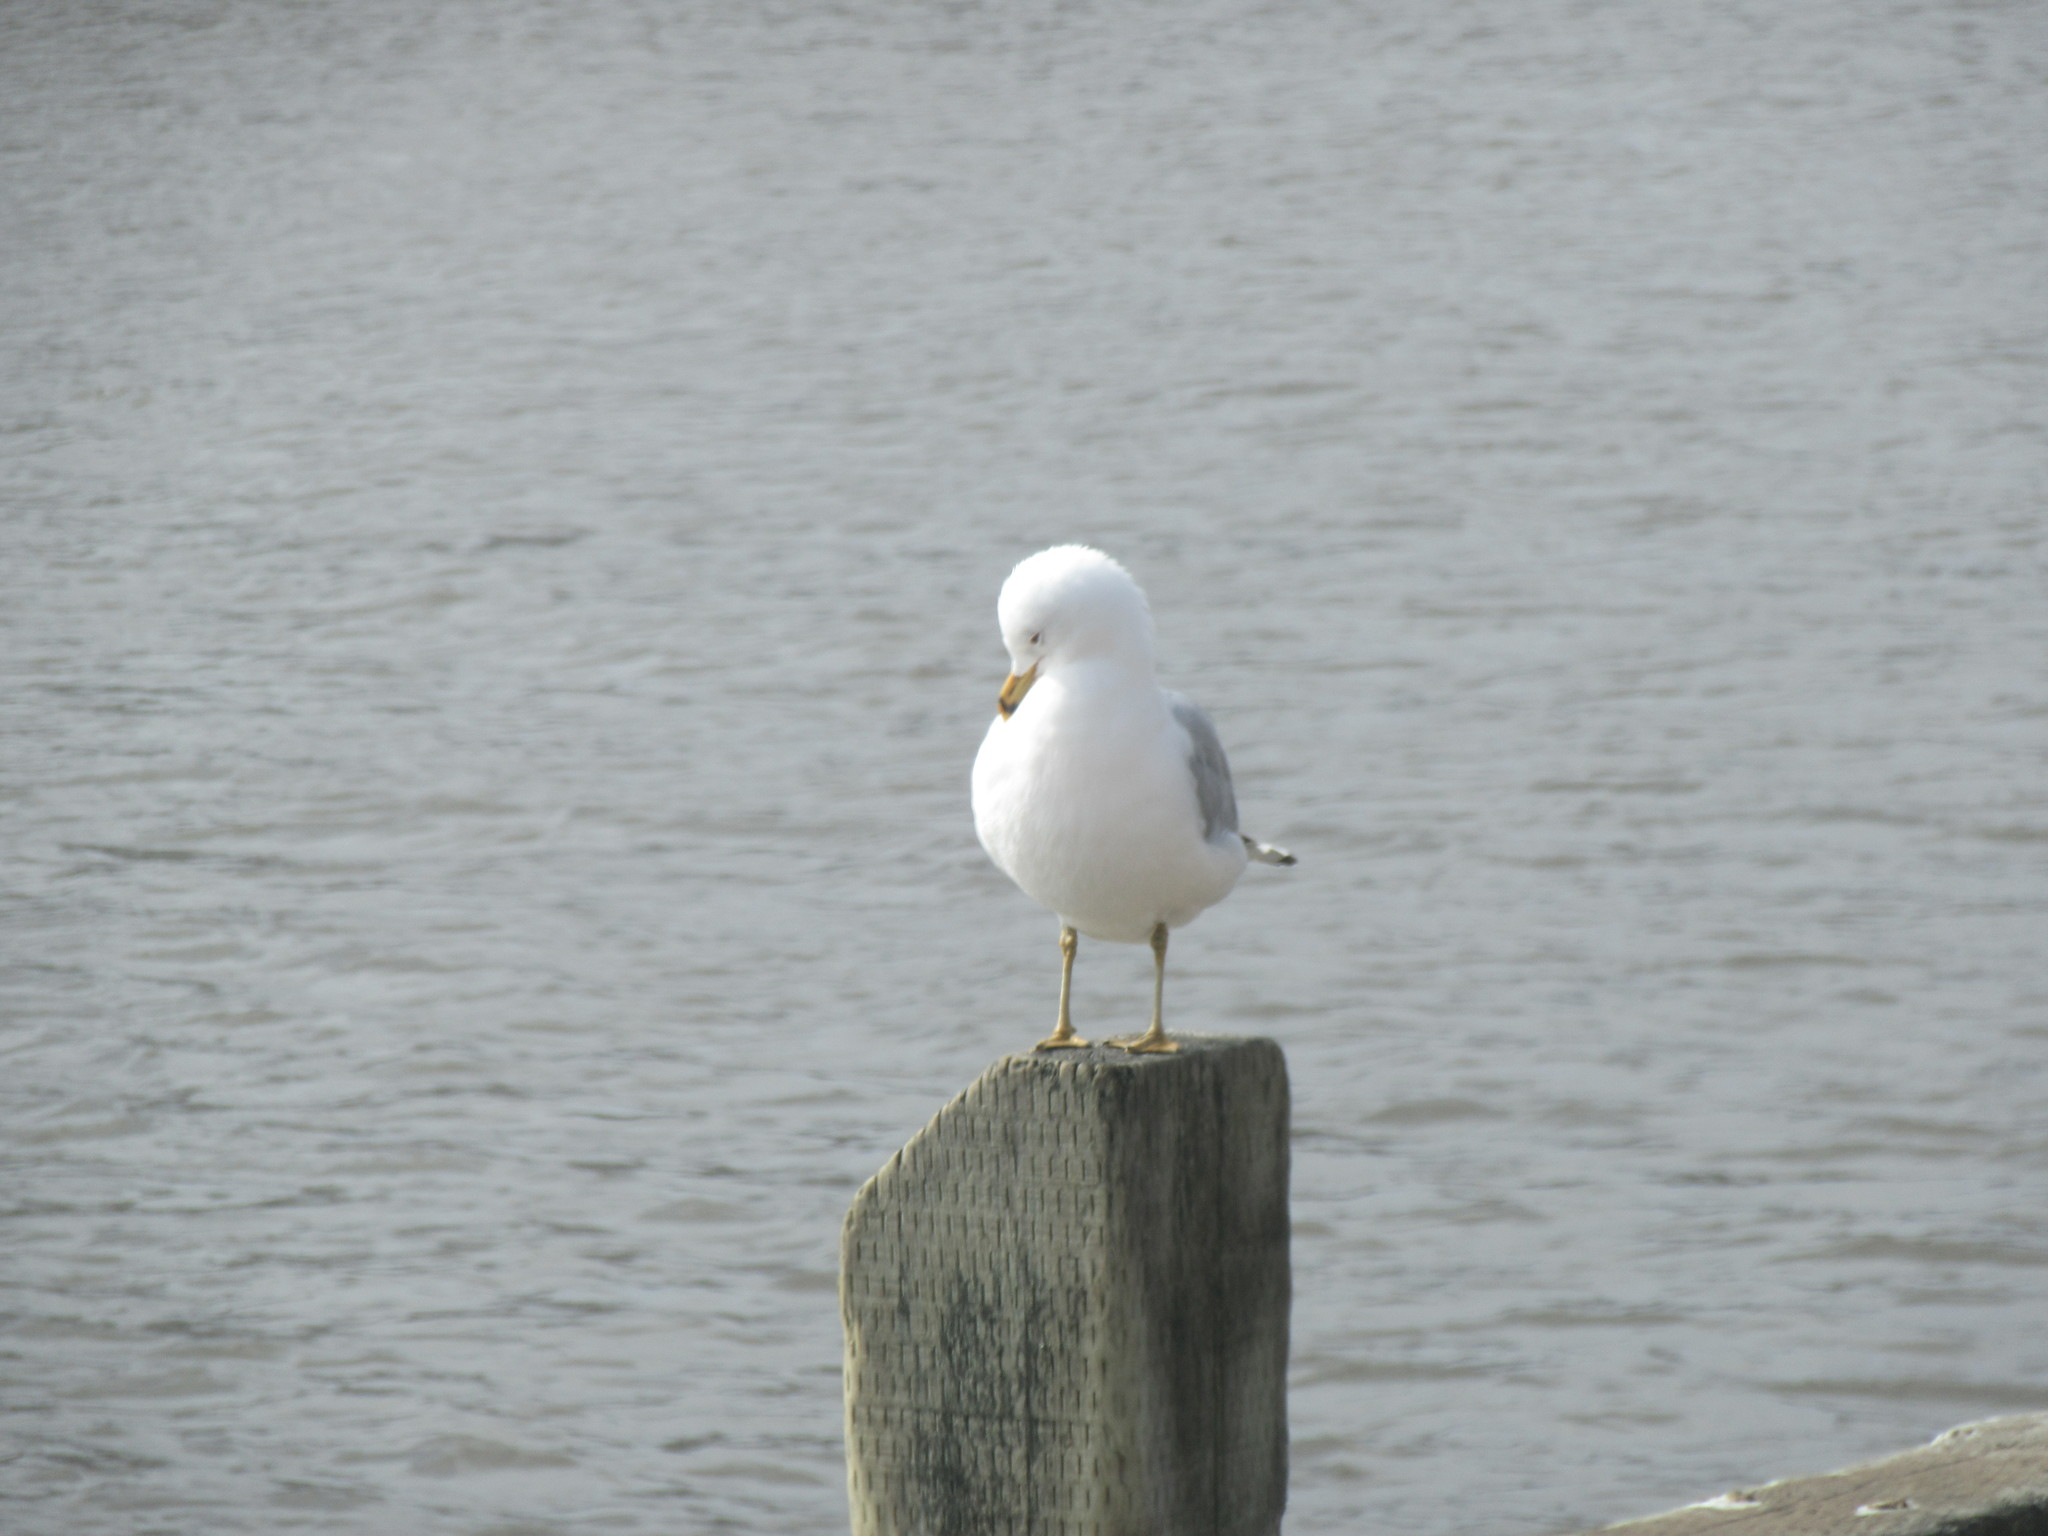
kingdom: Animalia
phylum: Chordata
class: Aves
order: Charadriiformes
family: Laridae
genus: Larus
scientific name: Larus delawarensis
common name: Ring-billed gull
